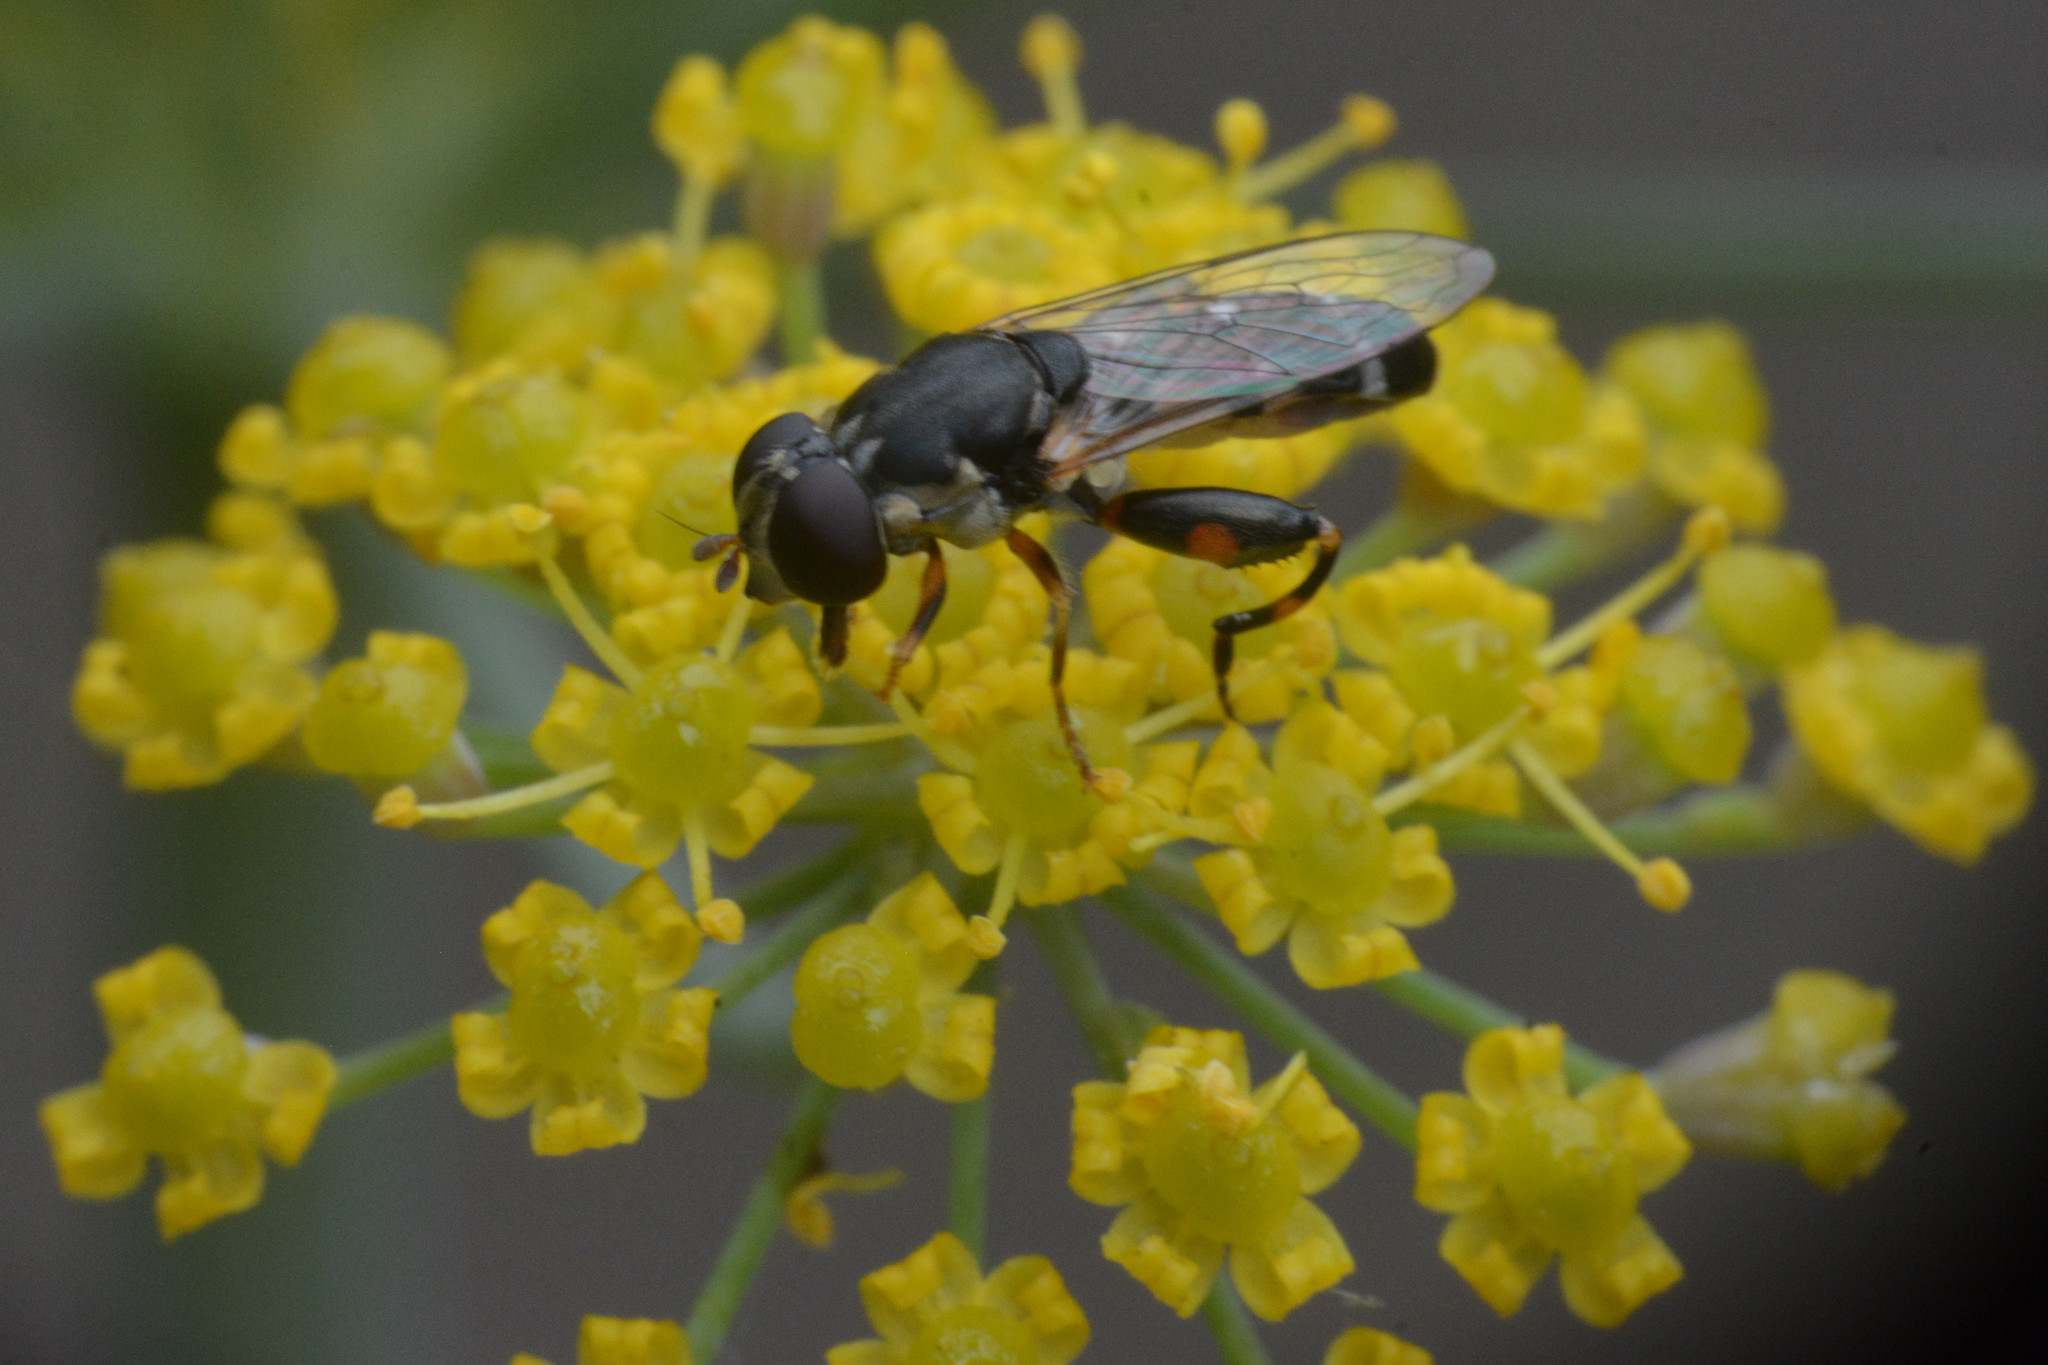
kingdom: Animalia
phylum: Arthropoda
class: Insecta
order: Diptera
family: Syrphidae
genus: Syritta
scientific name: Syritta pipiens
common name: Hover fly
